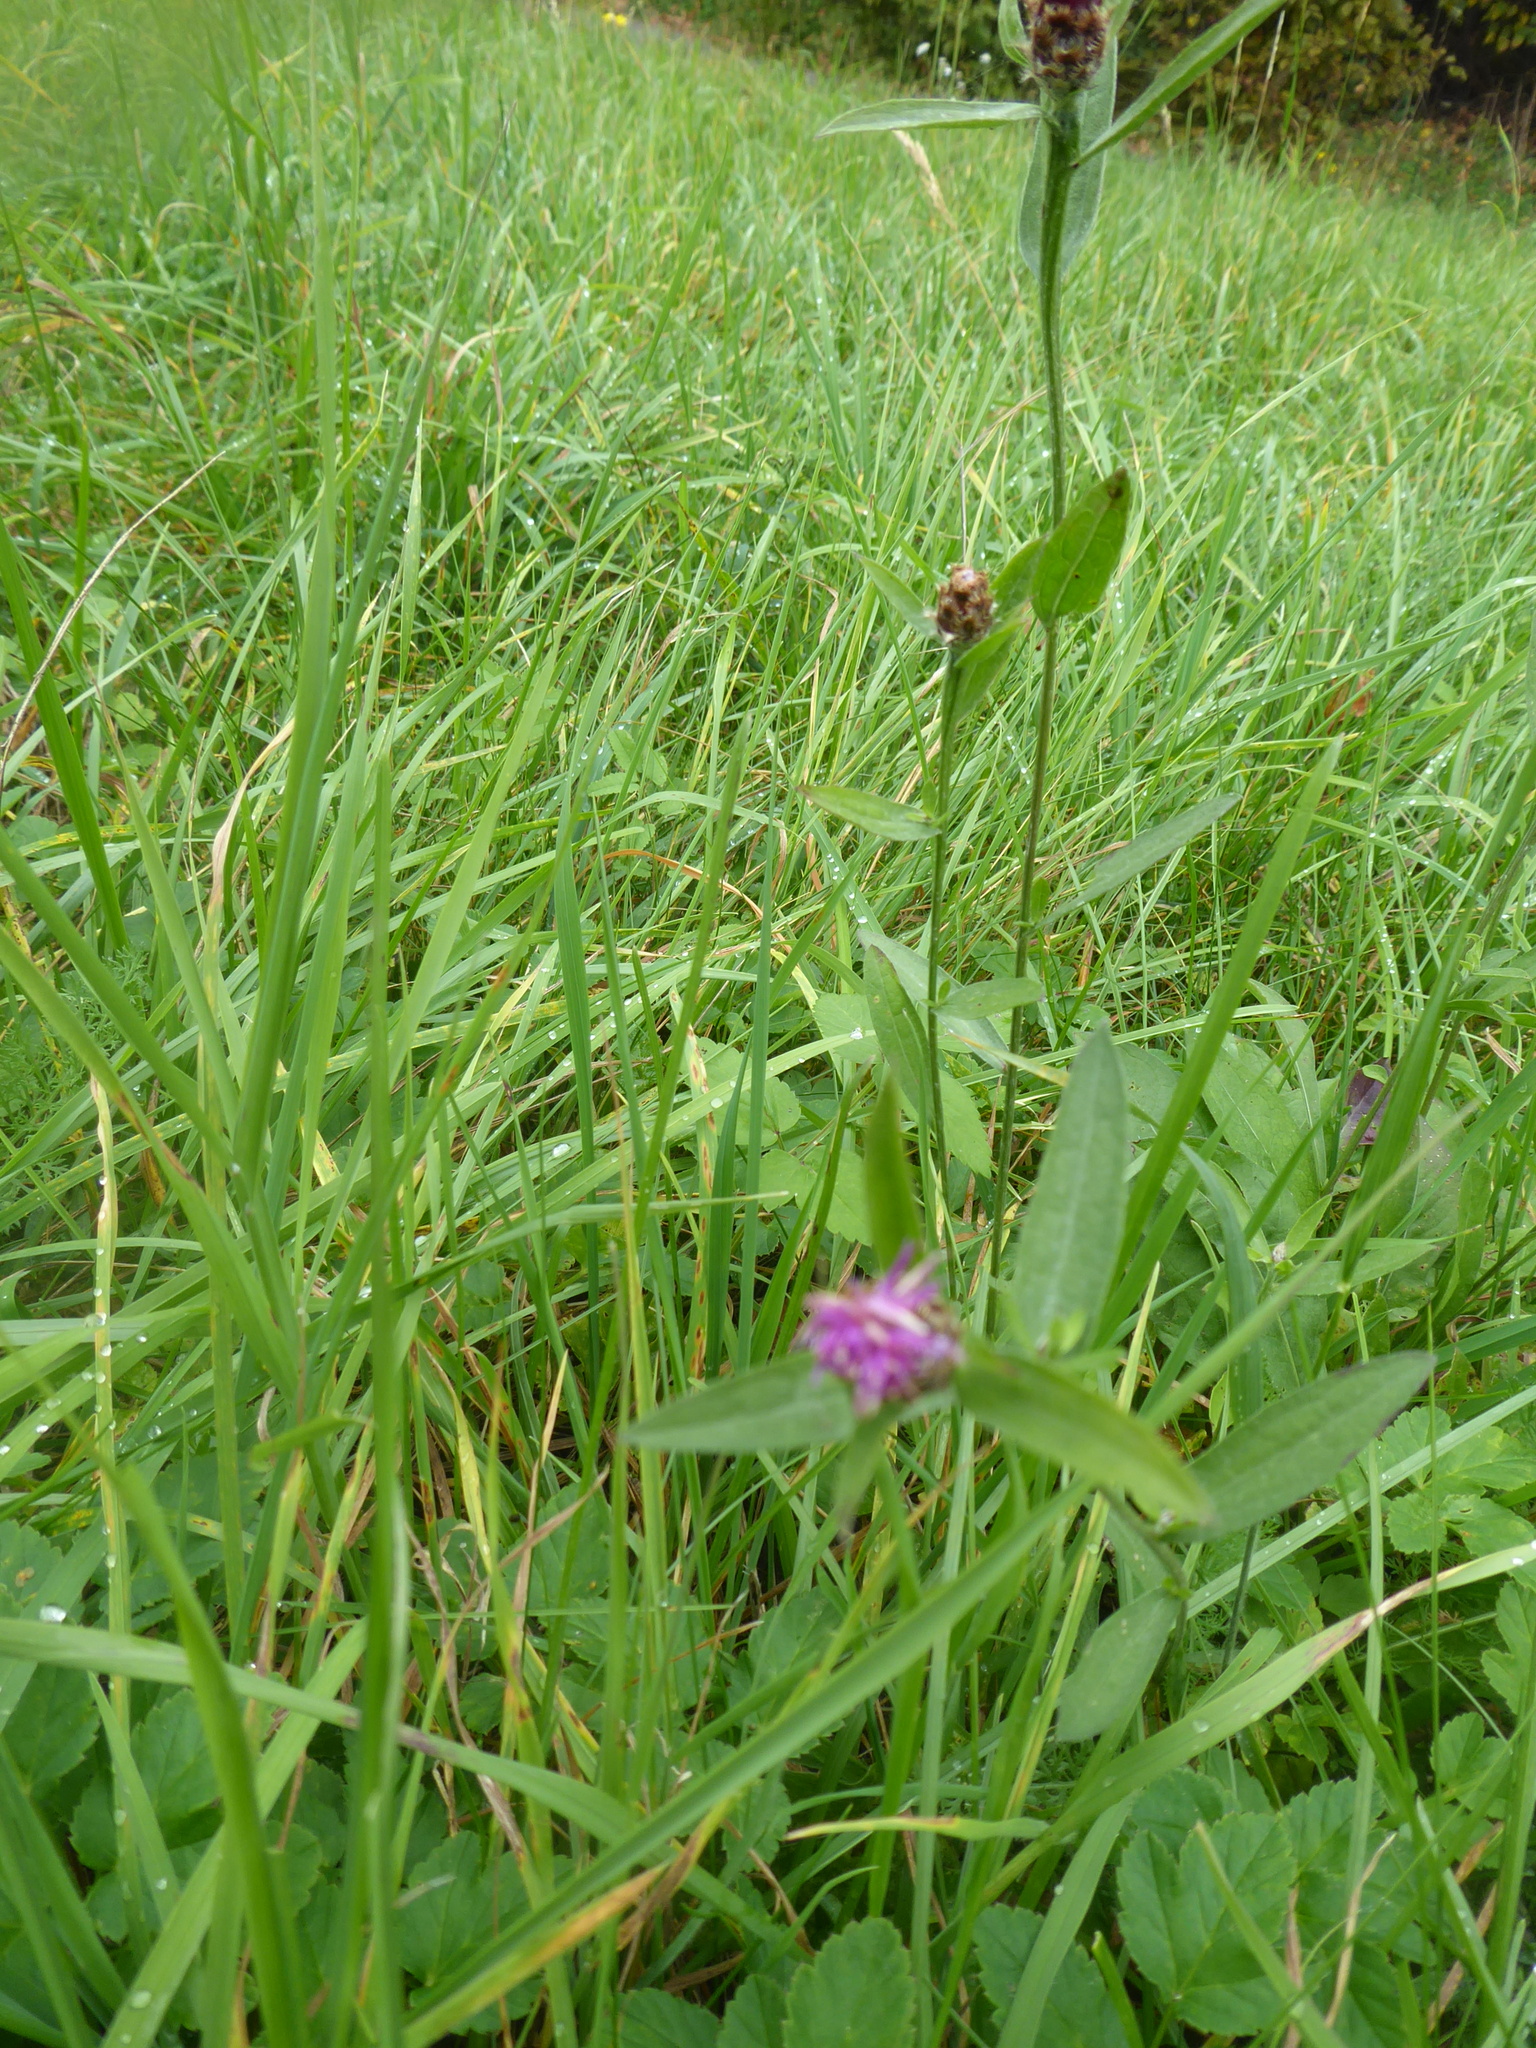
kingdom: Plantae
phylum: Tracheophyta
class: Magnoliopsida
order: Asterales
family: Asteraceae
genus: Centaurea
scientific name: Centaurea jacea
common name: Brown knapweed
